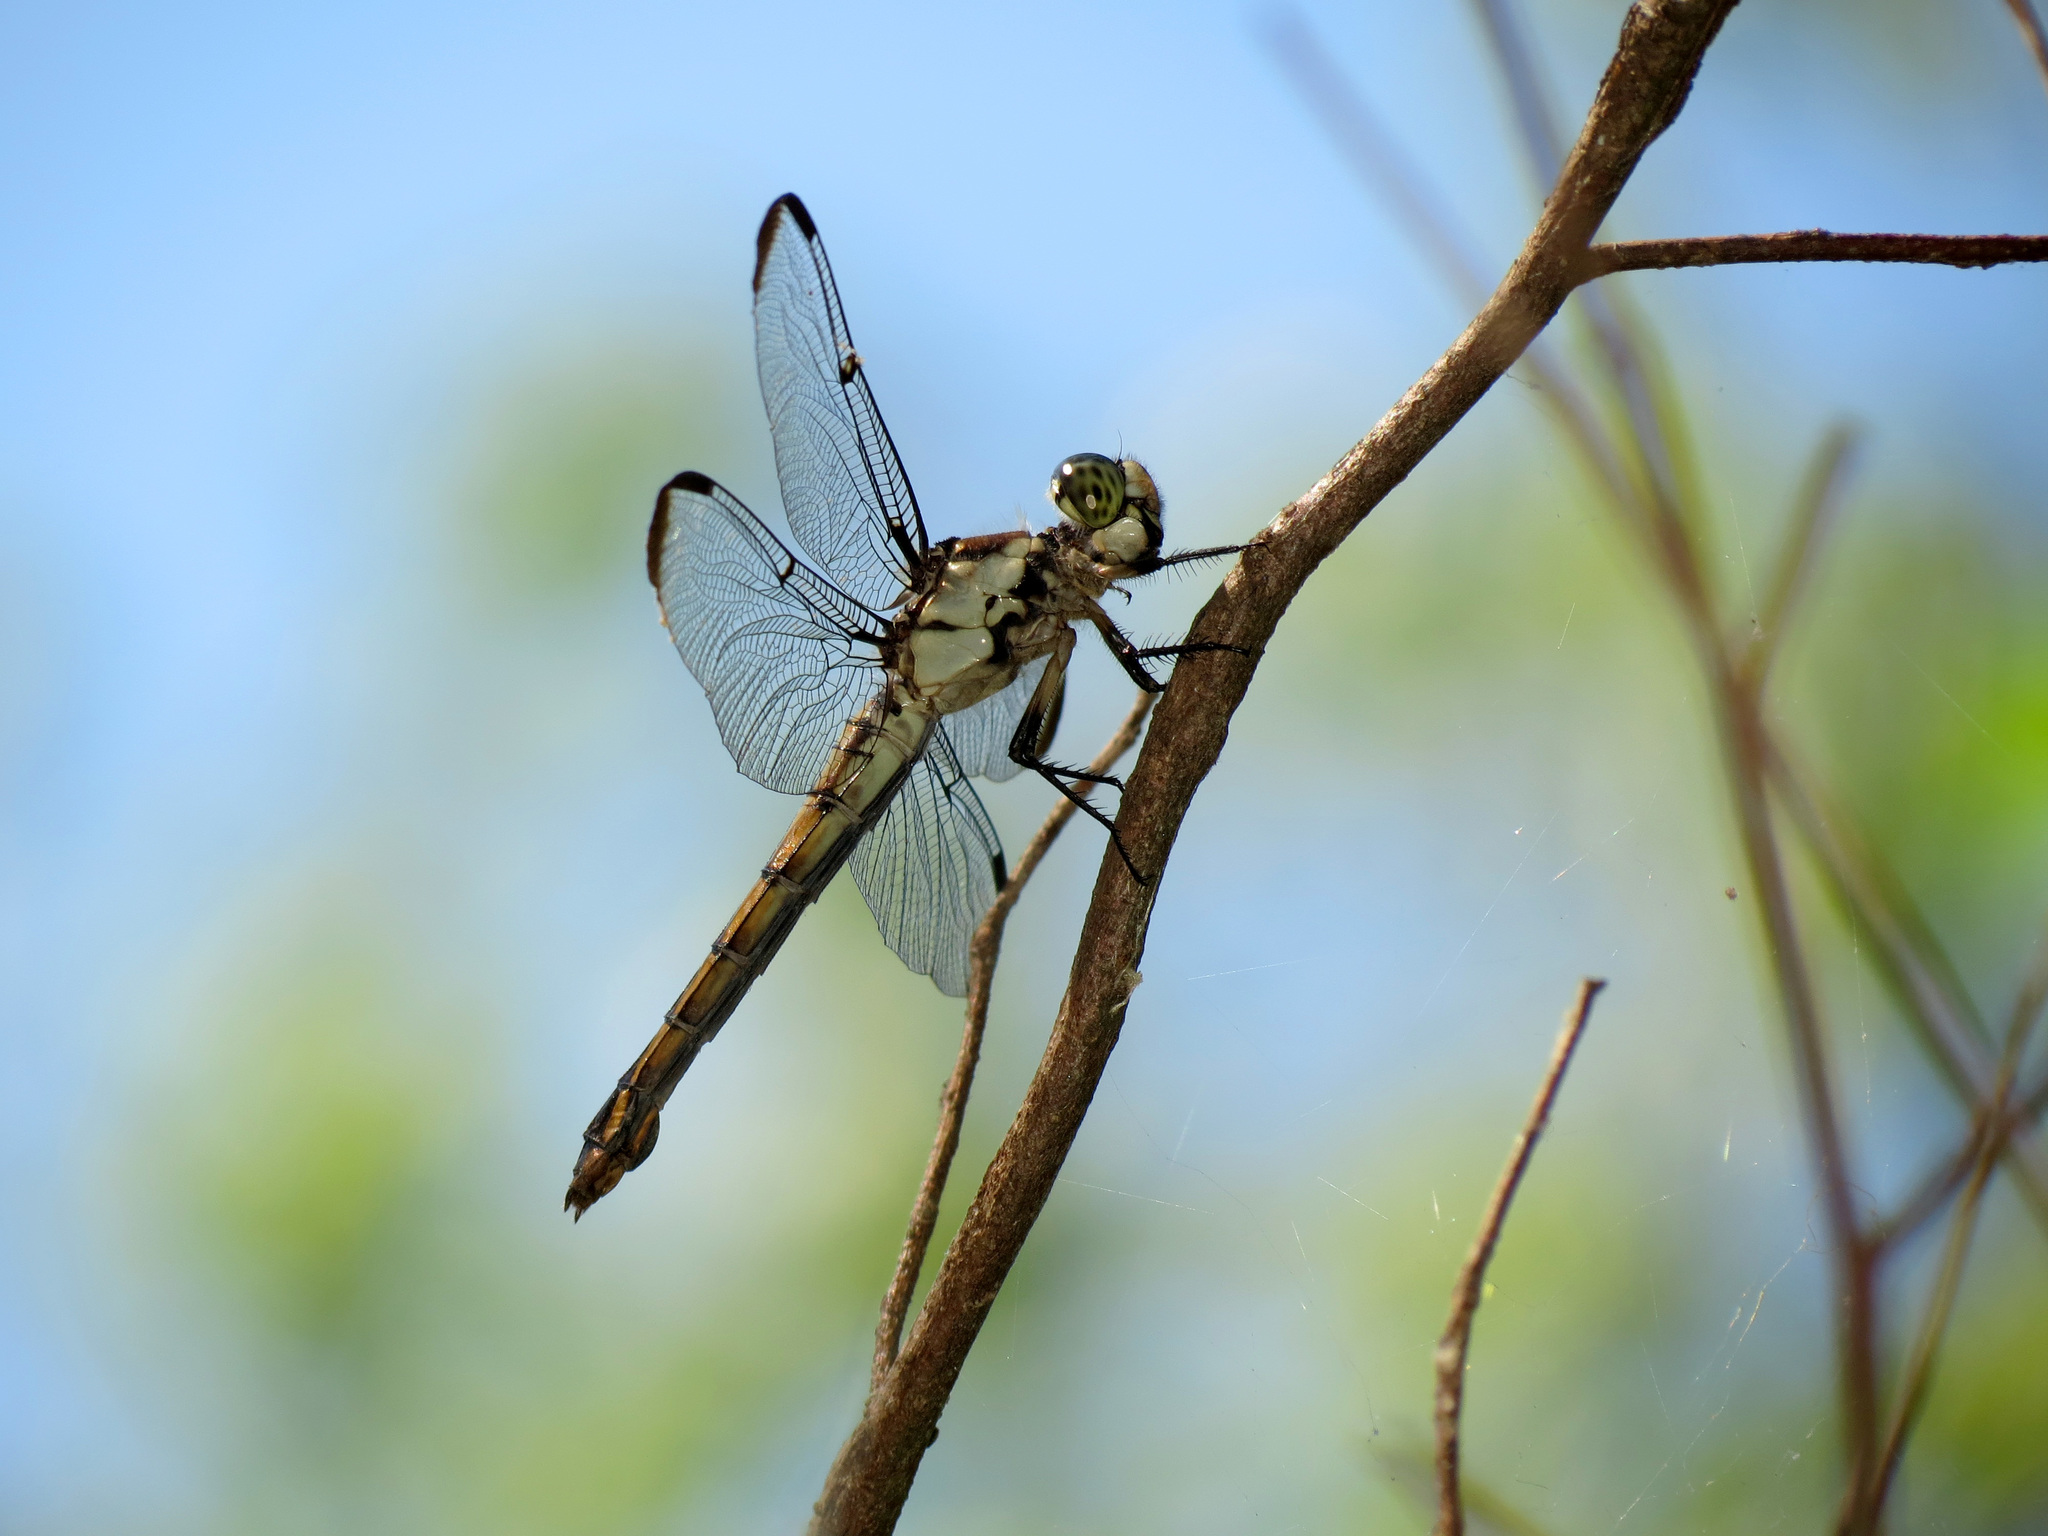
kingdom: Animalia
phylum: Arthropoda
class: Insecta
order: Odonata
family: Libellulidae
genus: Libellula
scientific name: Libellula vibrans
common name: Great blue skimmer
